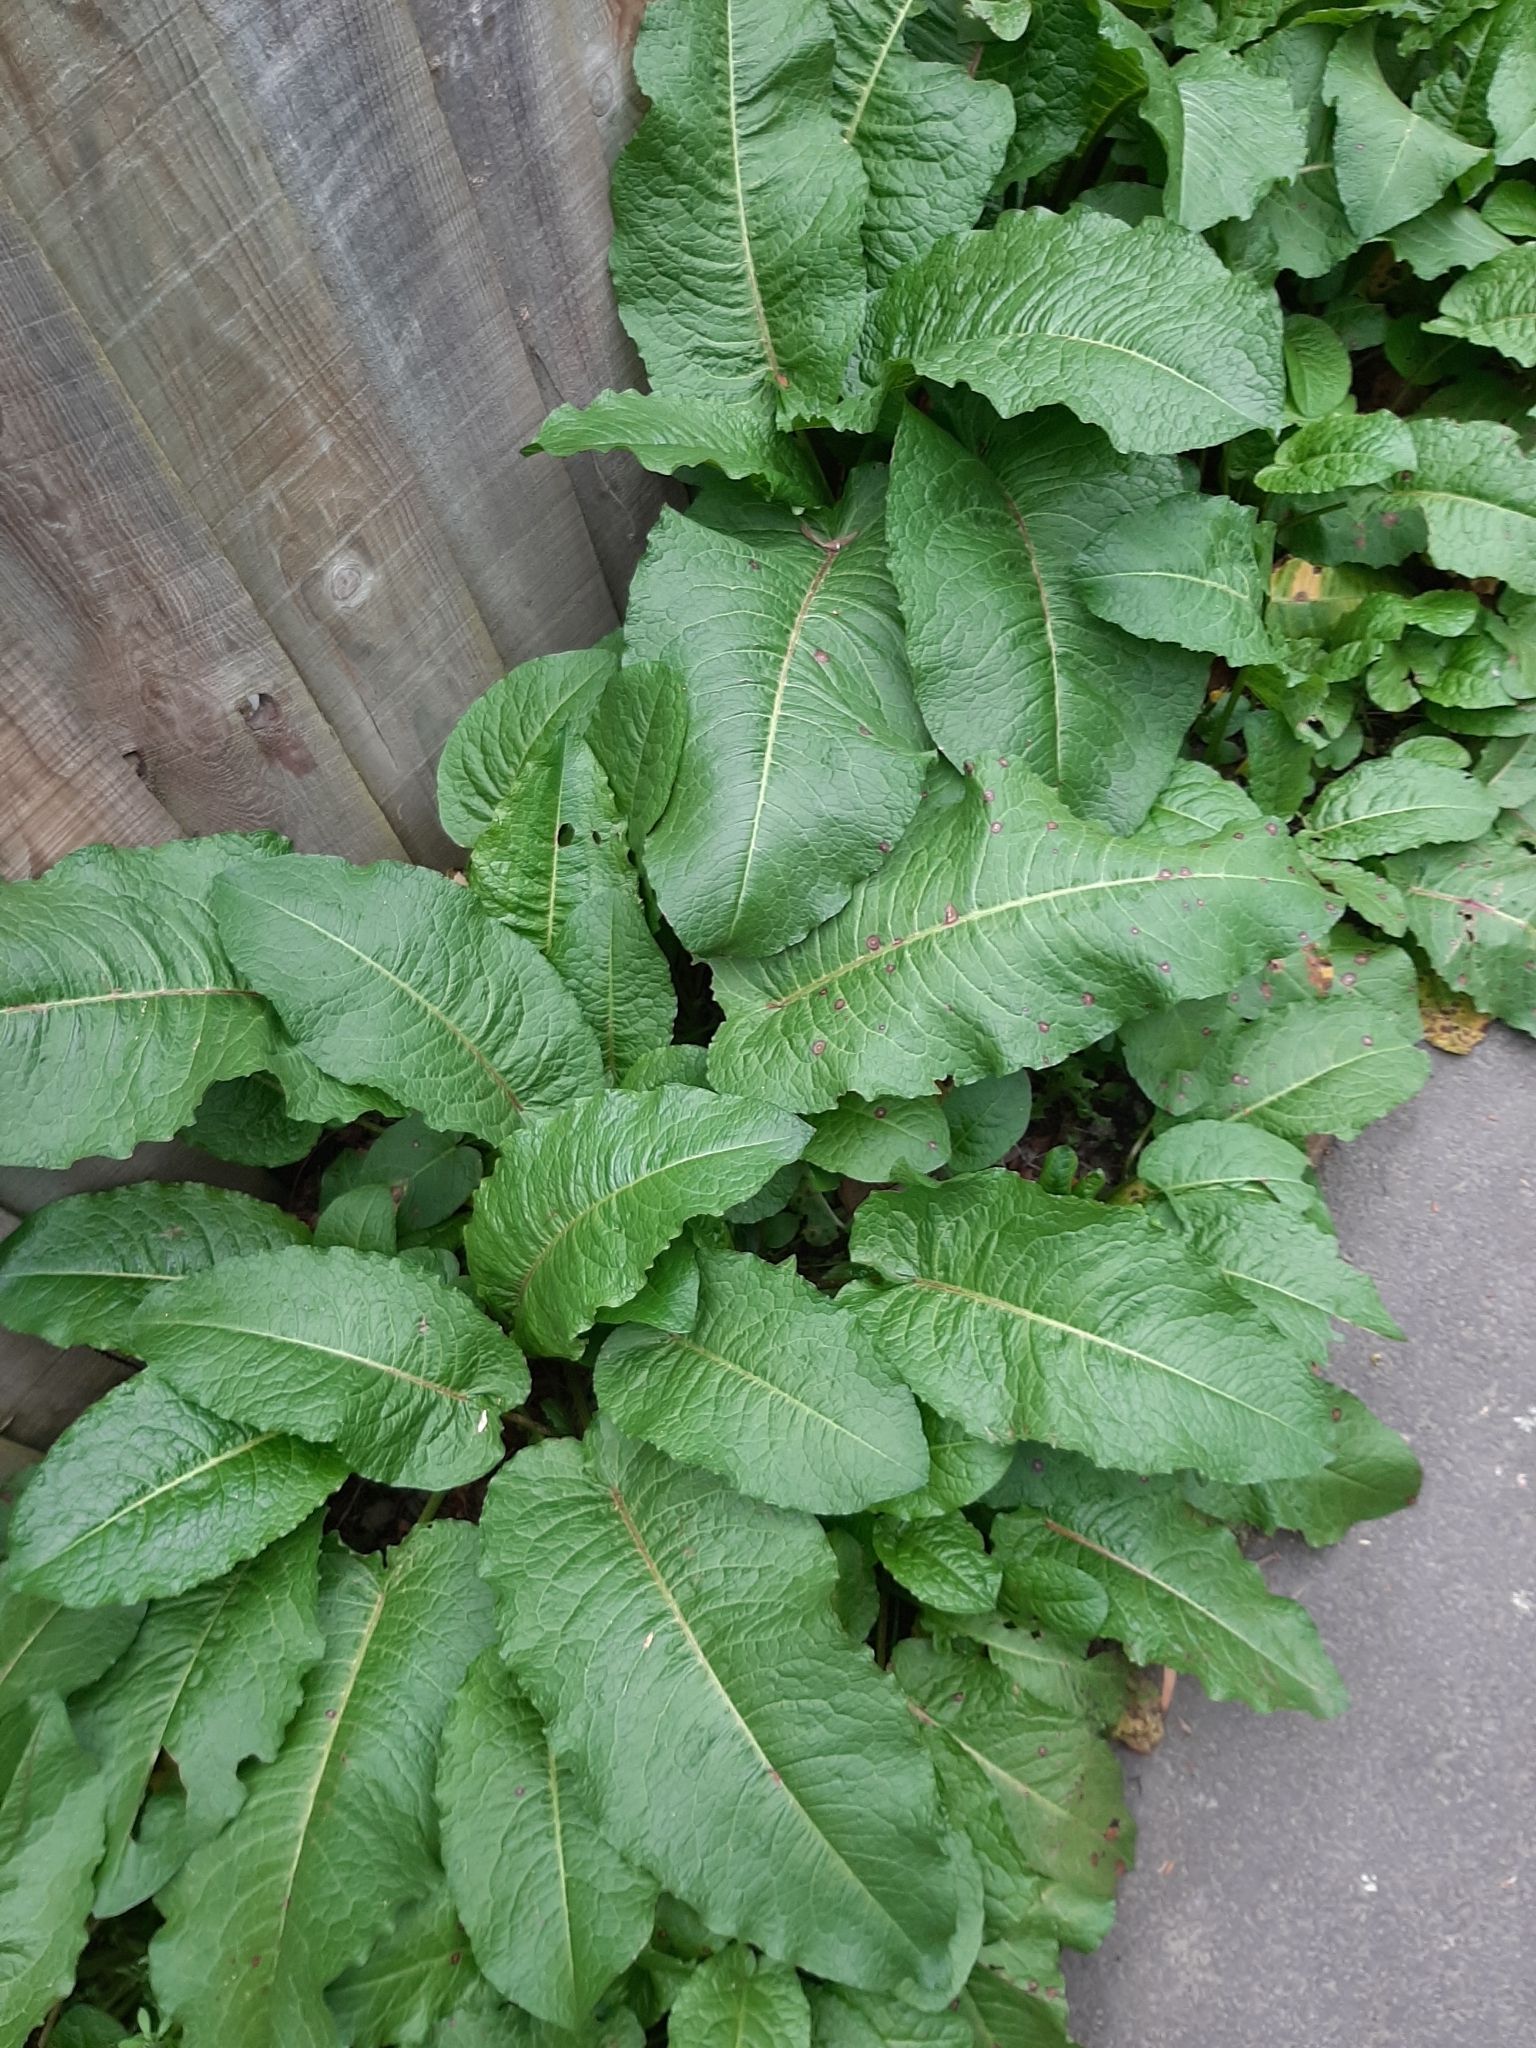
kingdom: Plantae
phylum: Tracheophyta
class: Magnoliopsida
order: Caryophyllales
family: Polygonaceae
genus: Rumex
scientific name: Rumex obtusifolius
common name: Bitter dock
